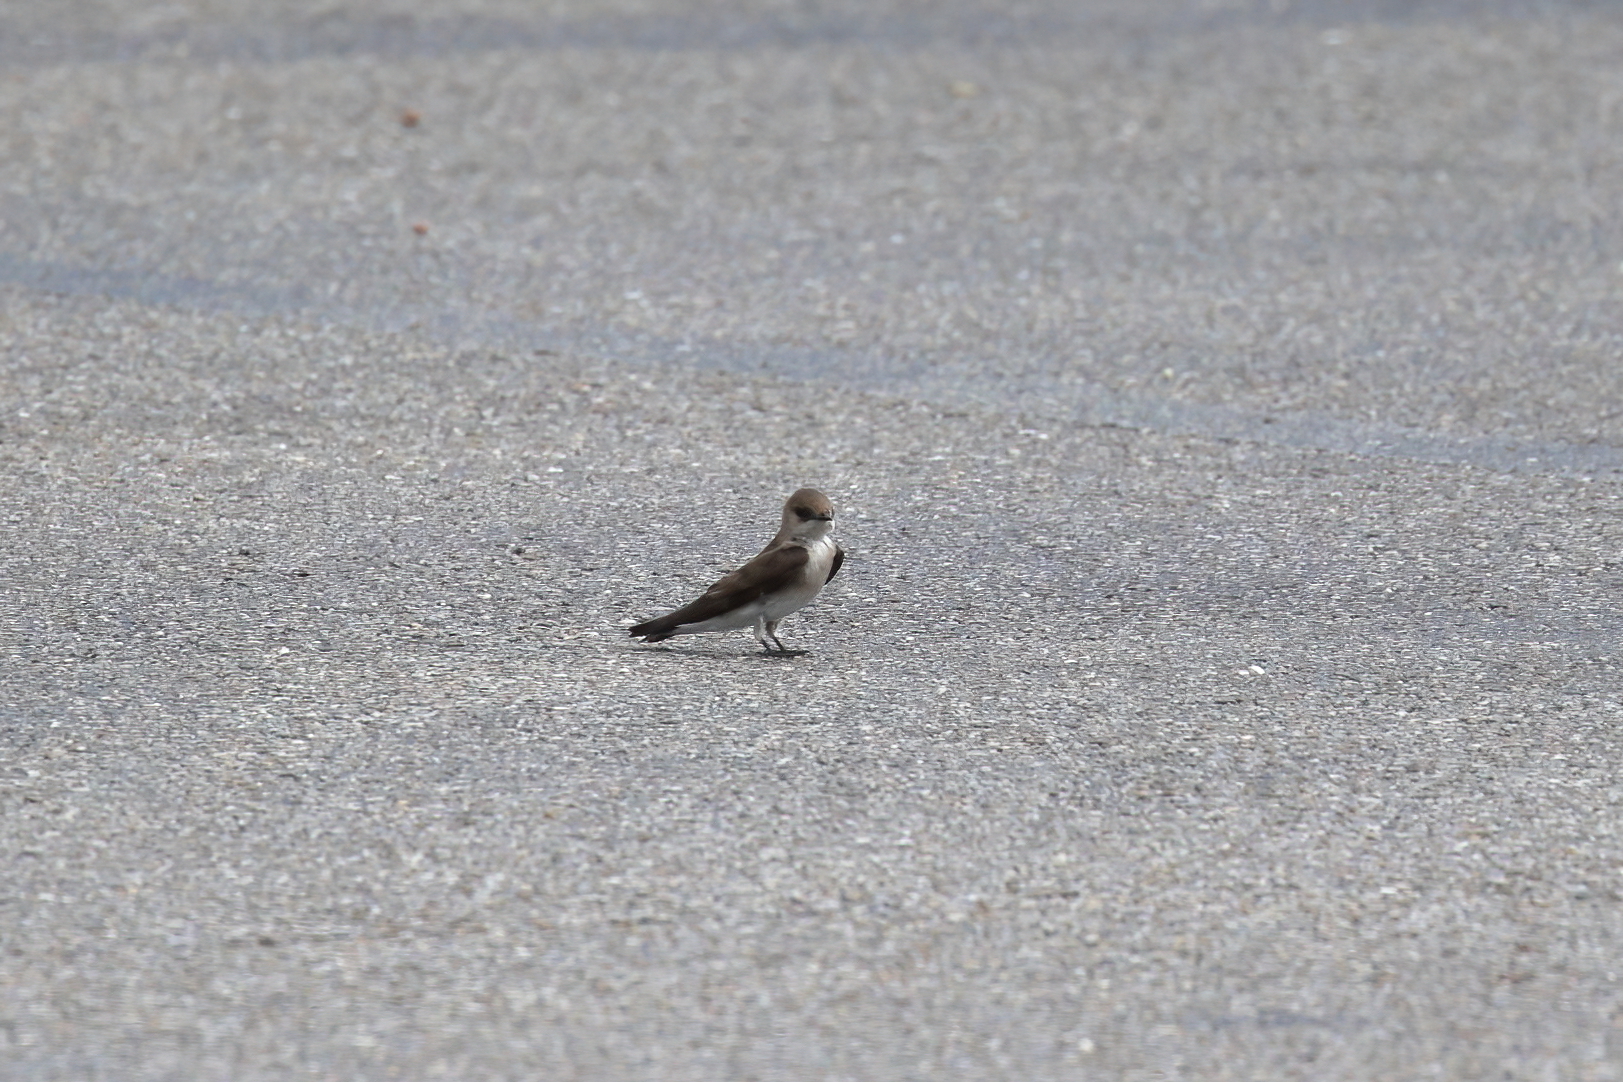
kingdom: Animalia
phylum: Chordata
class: Aves
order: Passeriformes
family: Hirundinidae
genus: Stelgidopteryx
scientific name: Stelgidopteryx serripennis
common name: Northern rough-winged swallow
